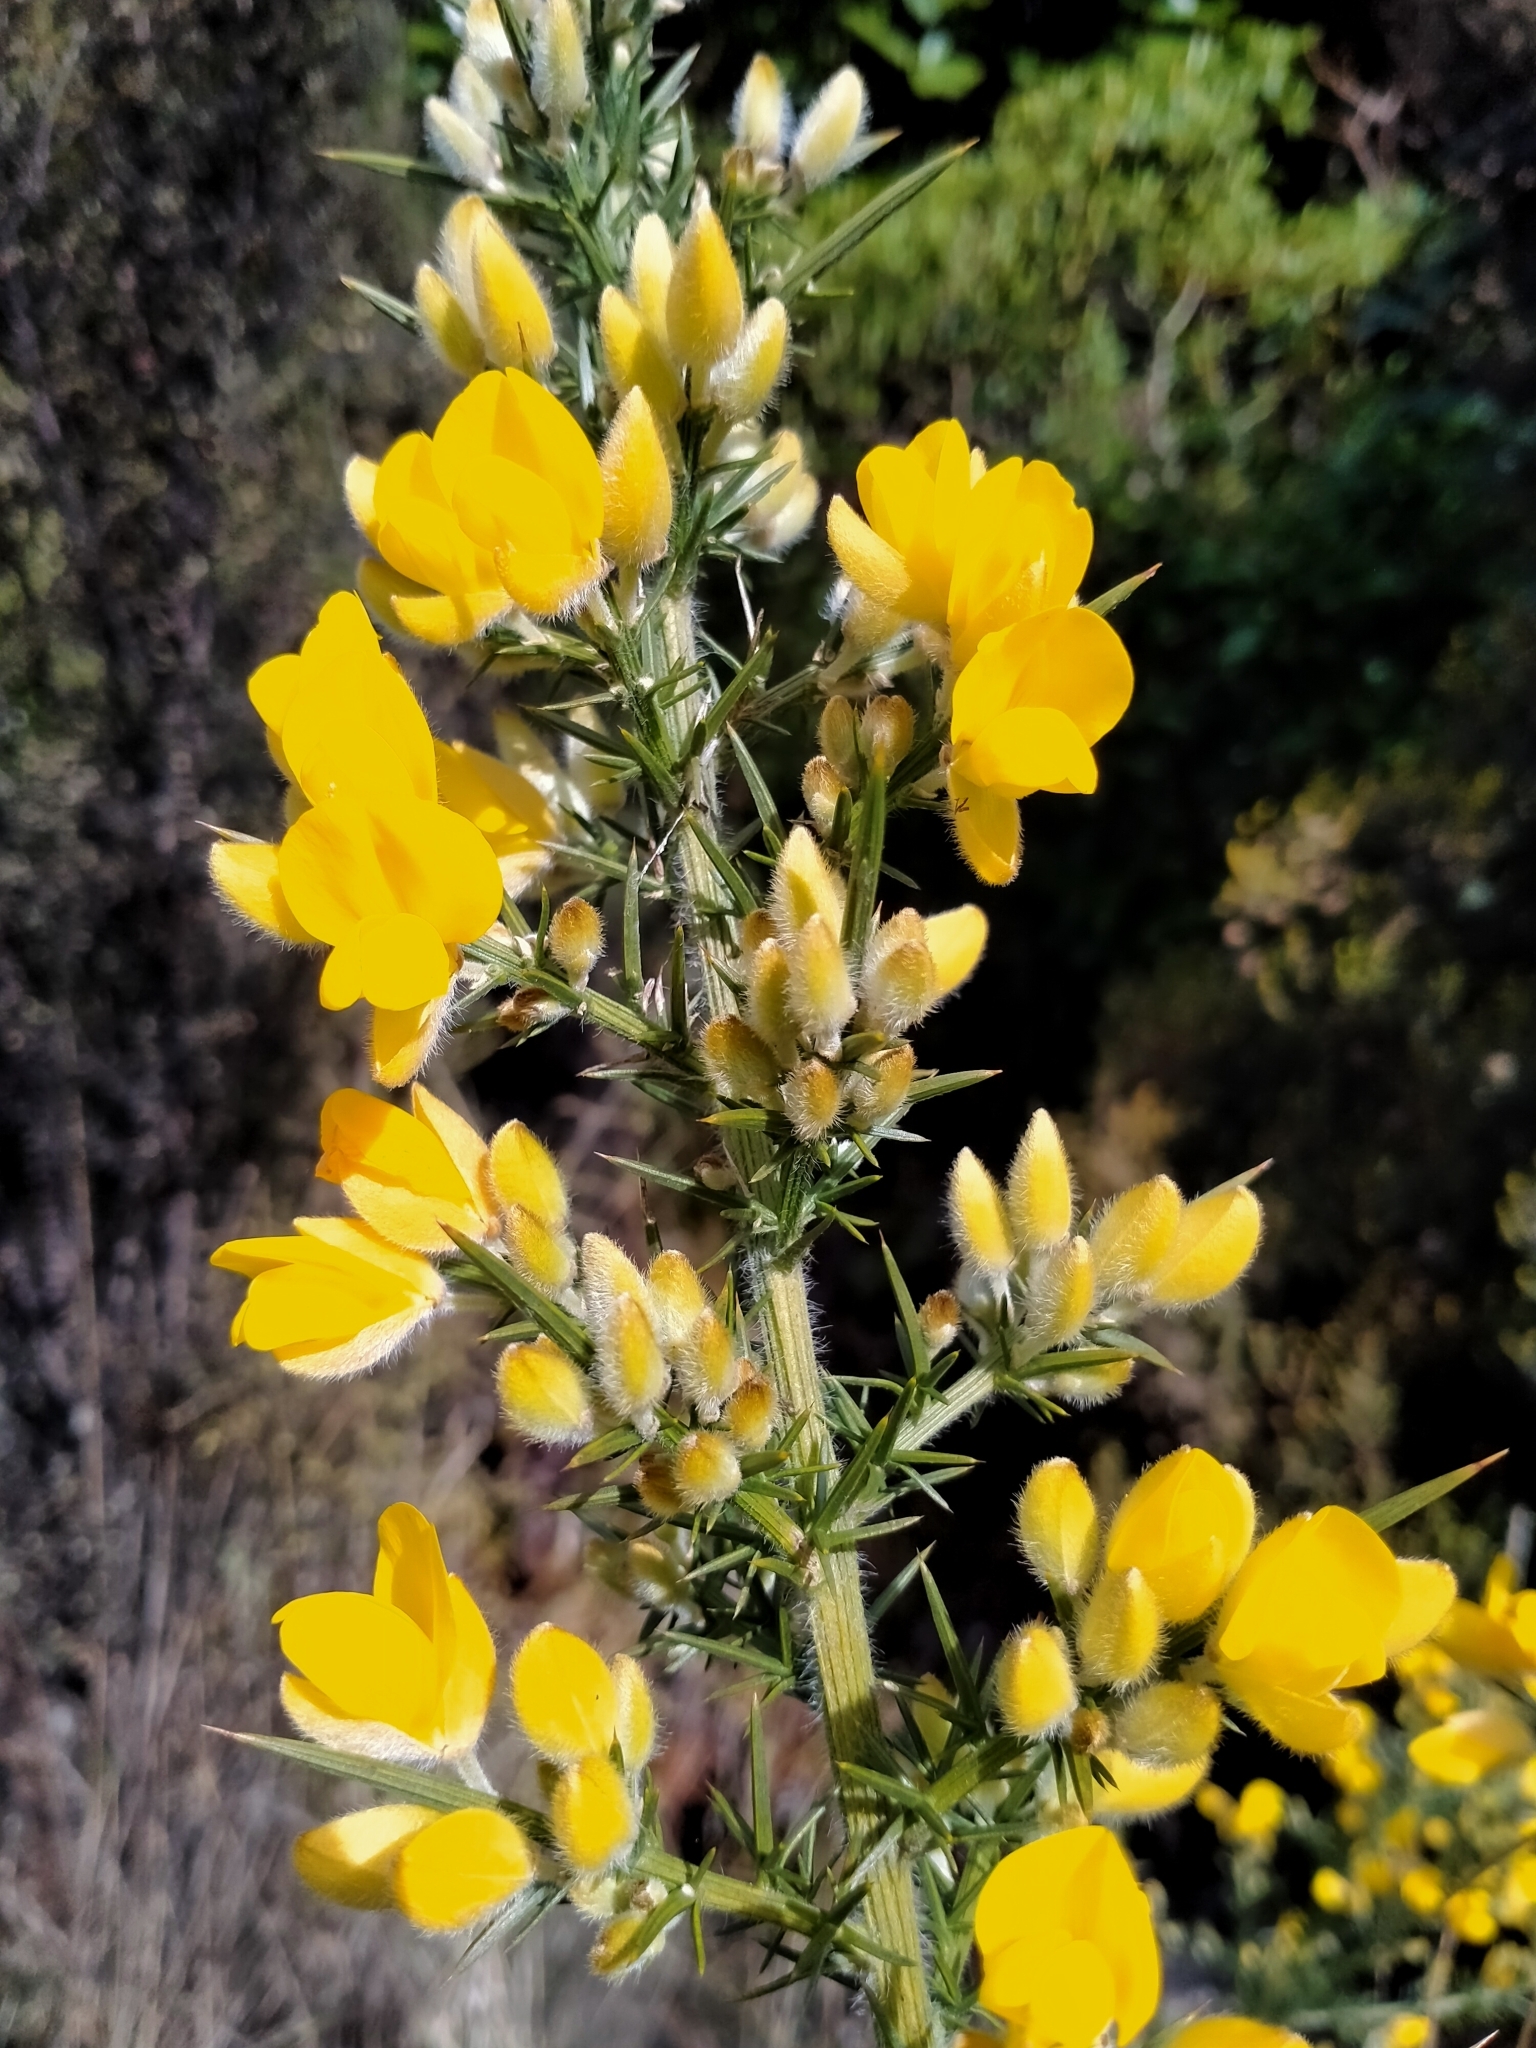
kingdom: Plantae
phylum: Tracheophyta
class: Magnoliopsida
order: Fabales
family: Fabaceae
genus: Ulex
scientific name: Ulex europaeus
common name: Common gorse
